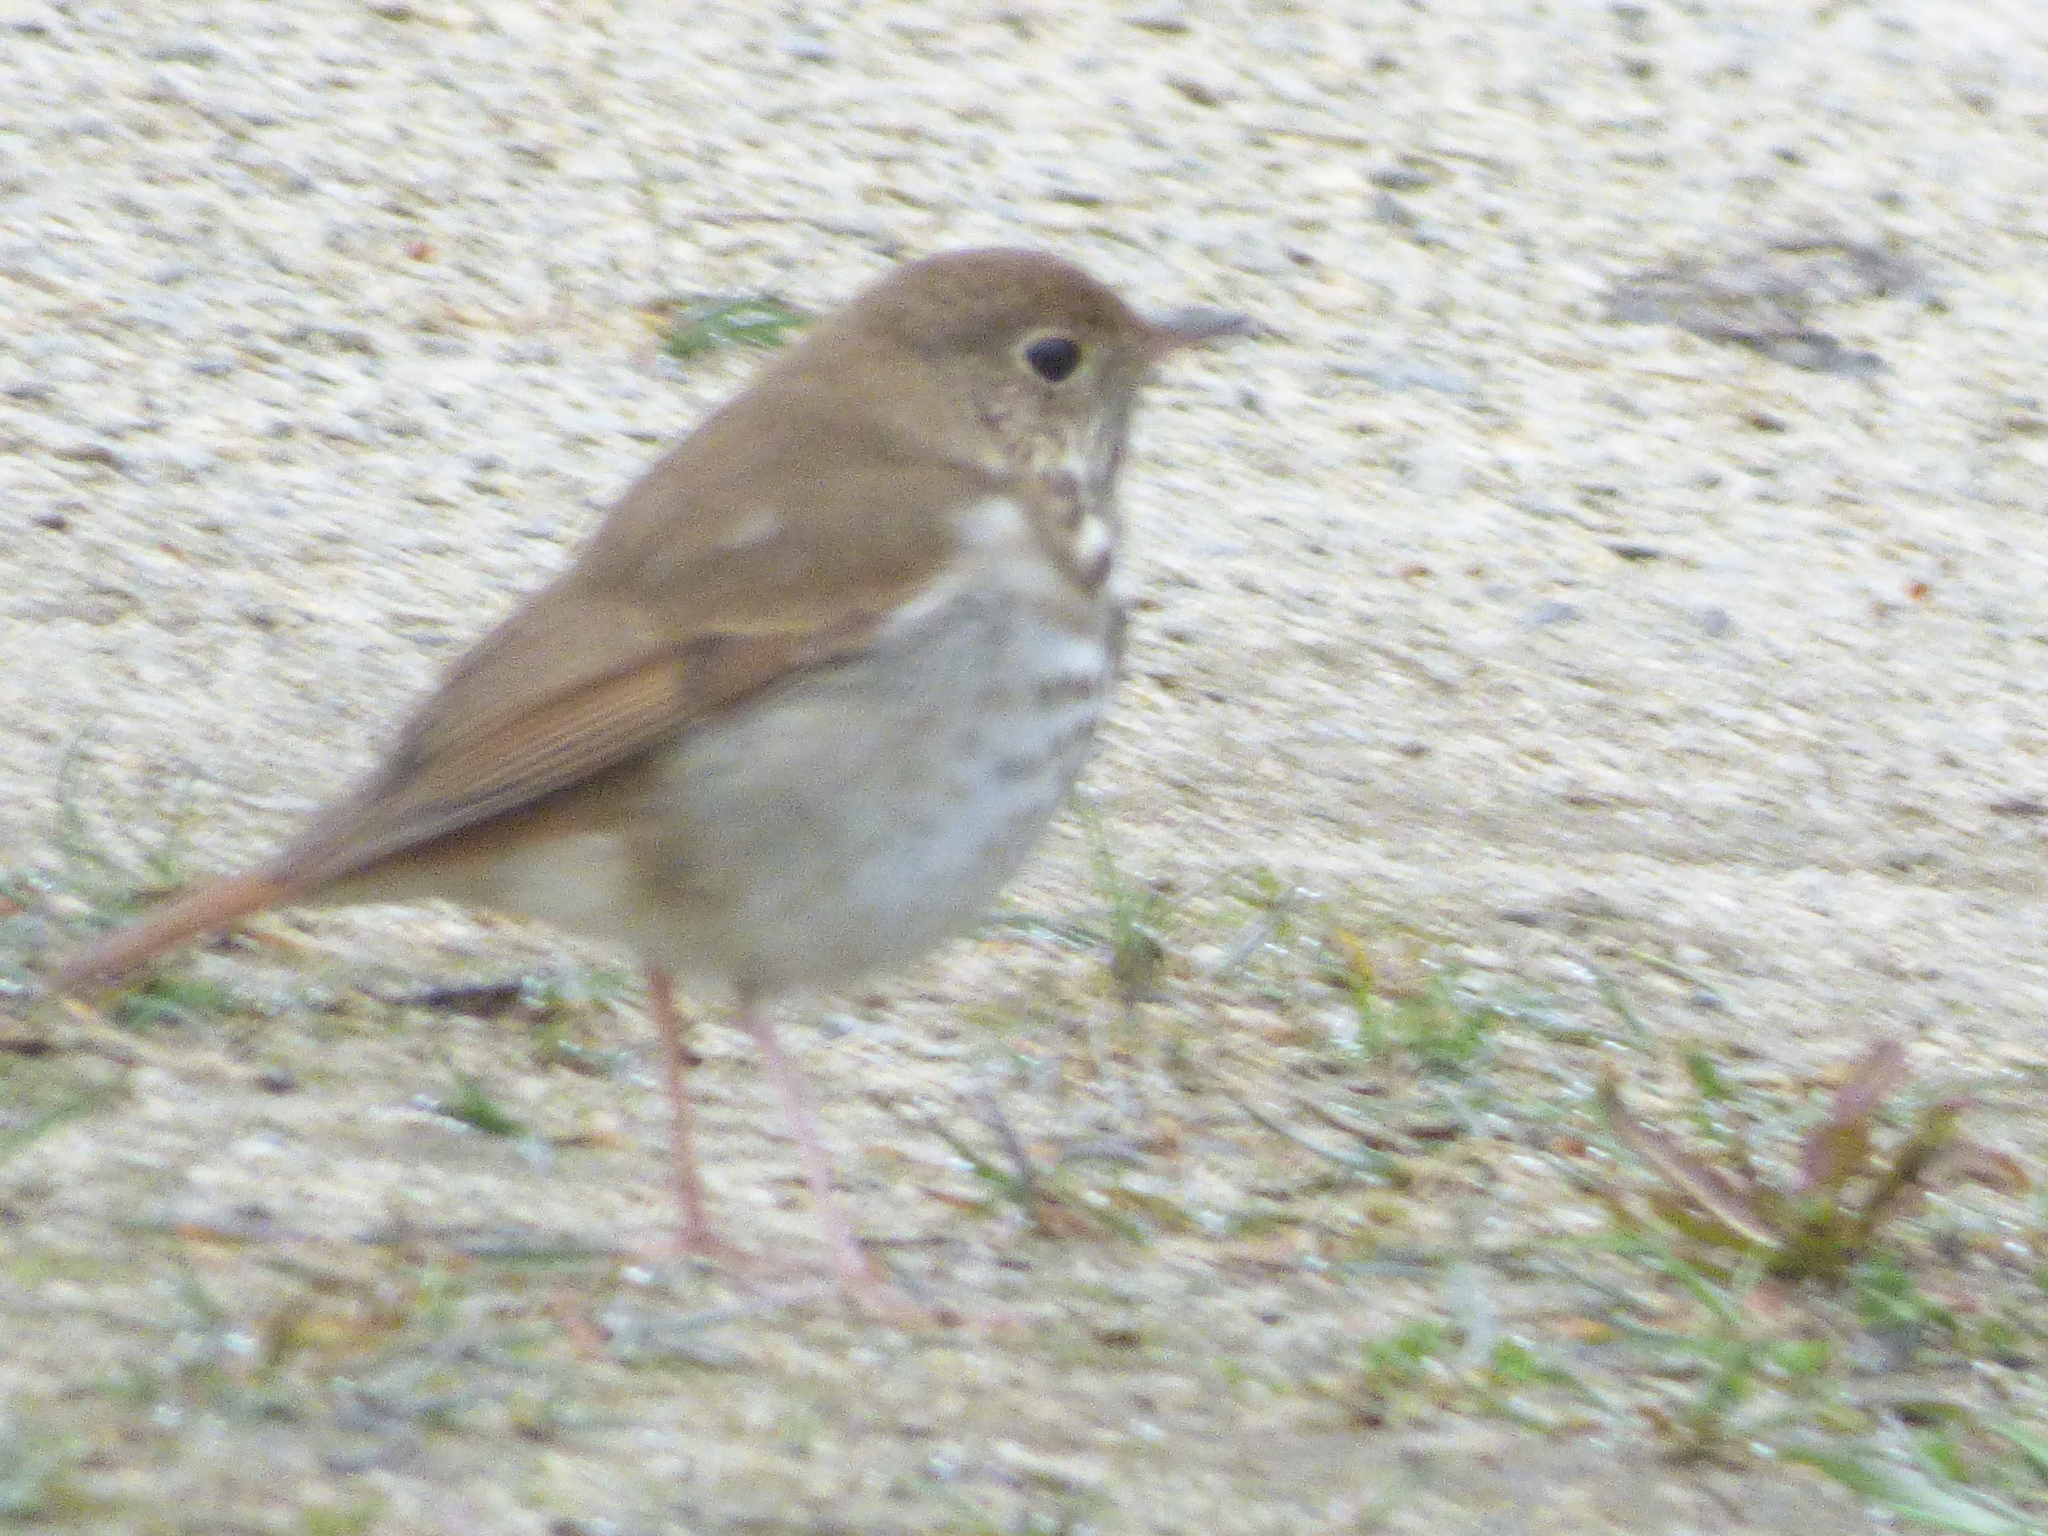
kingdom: Animalia
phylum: Chordata
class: Aves
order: Passeriformes
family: Turdidae
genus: Catharus
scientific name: Catharus guttatus
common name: Hermit thrush
